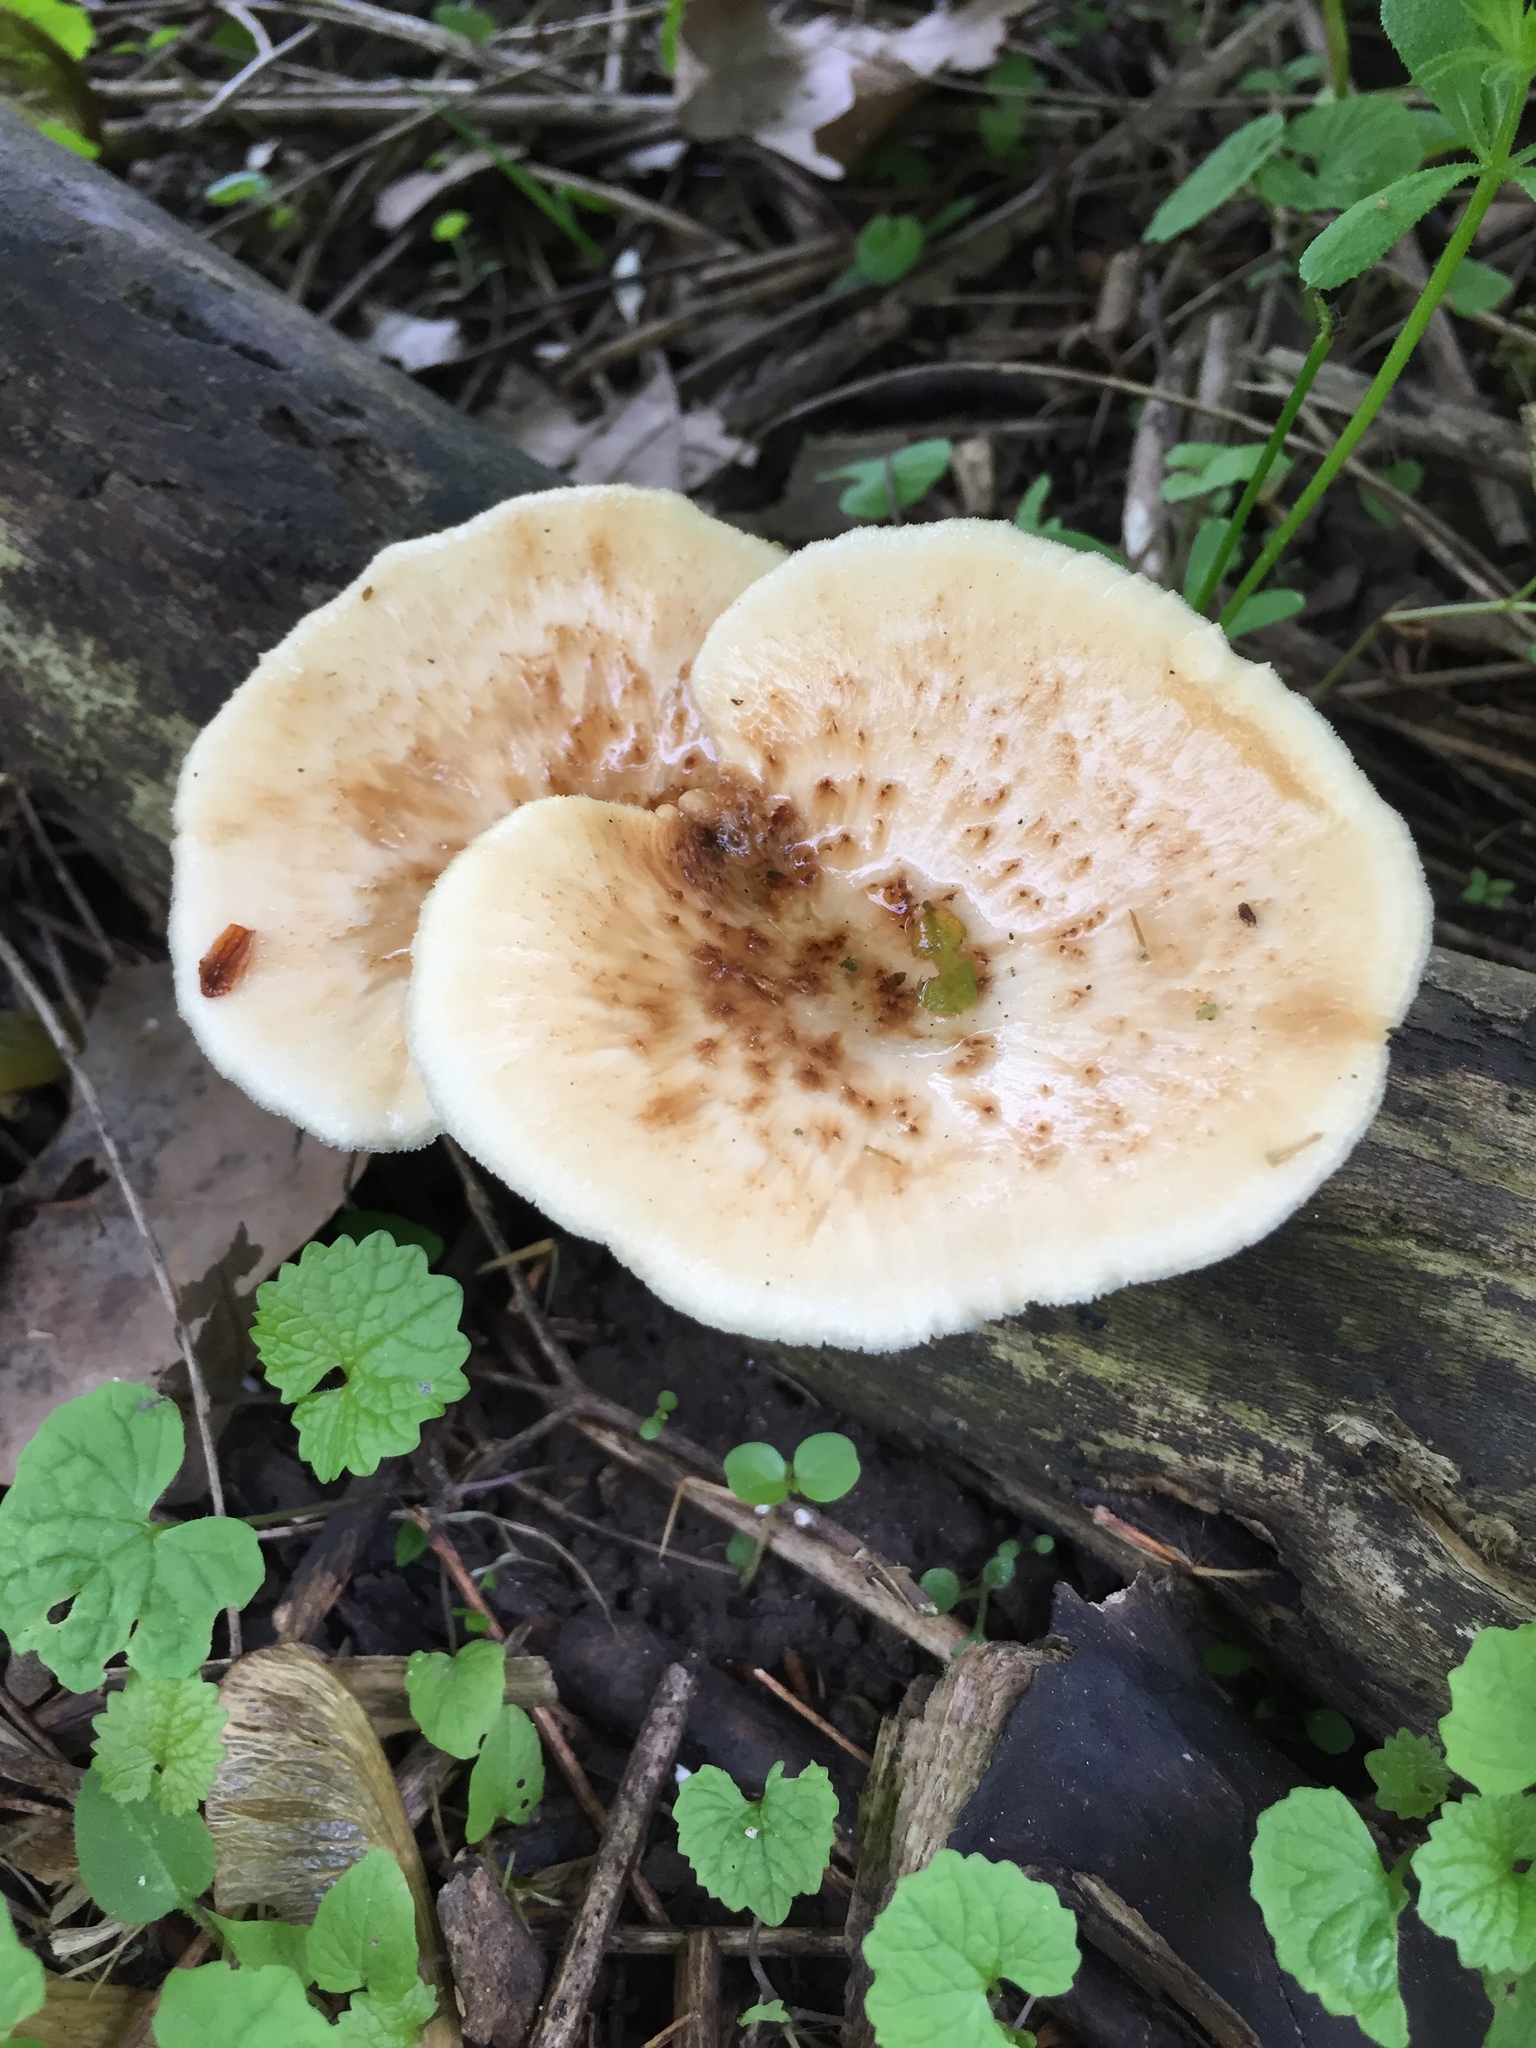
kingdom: Fungi
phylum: Basidiomycota
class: Agaricomycetes
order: Polyporales
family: Polyporaceae
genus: Cerioporus
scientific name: Cerioporus squamosus
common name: Dryad's saddle
